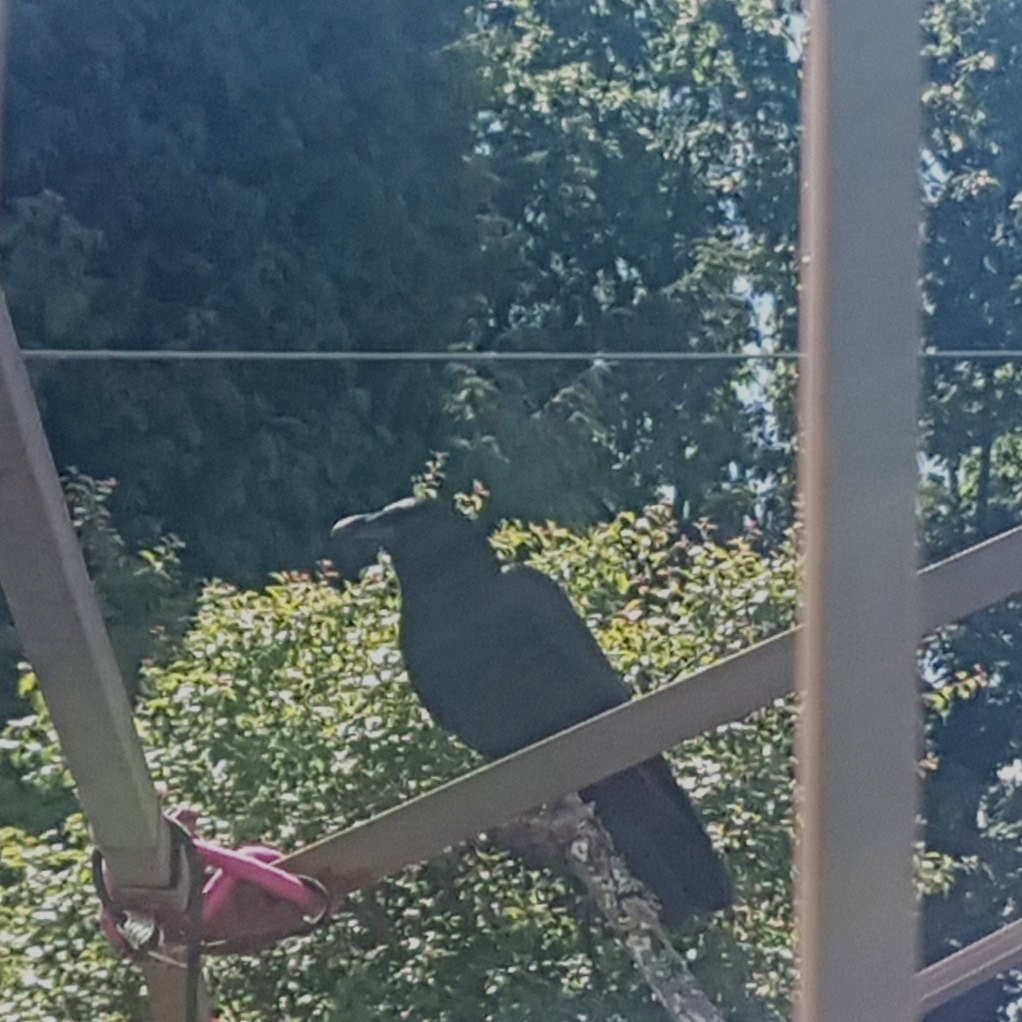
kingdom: Animalia
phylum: Chordata
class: Aves
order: Passeriformes
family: Corvidae
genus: Corvus
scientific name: Corvus brachyrhynchos
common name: American crow
